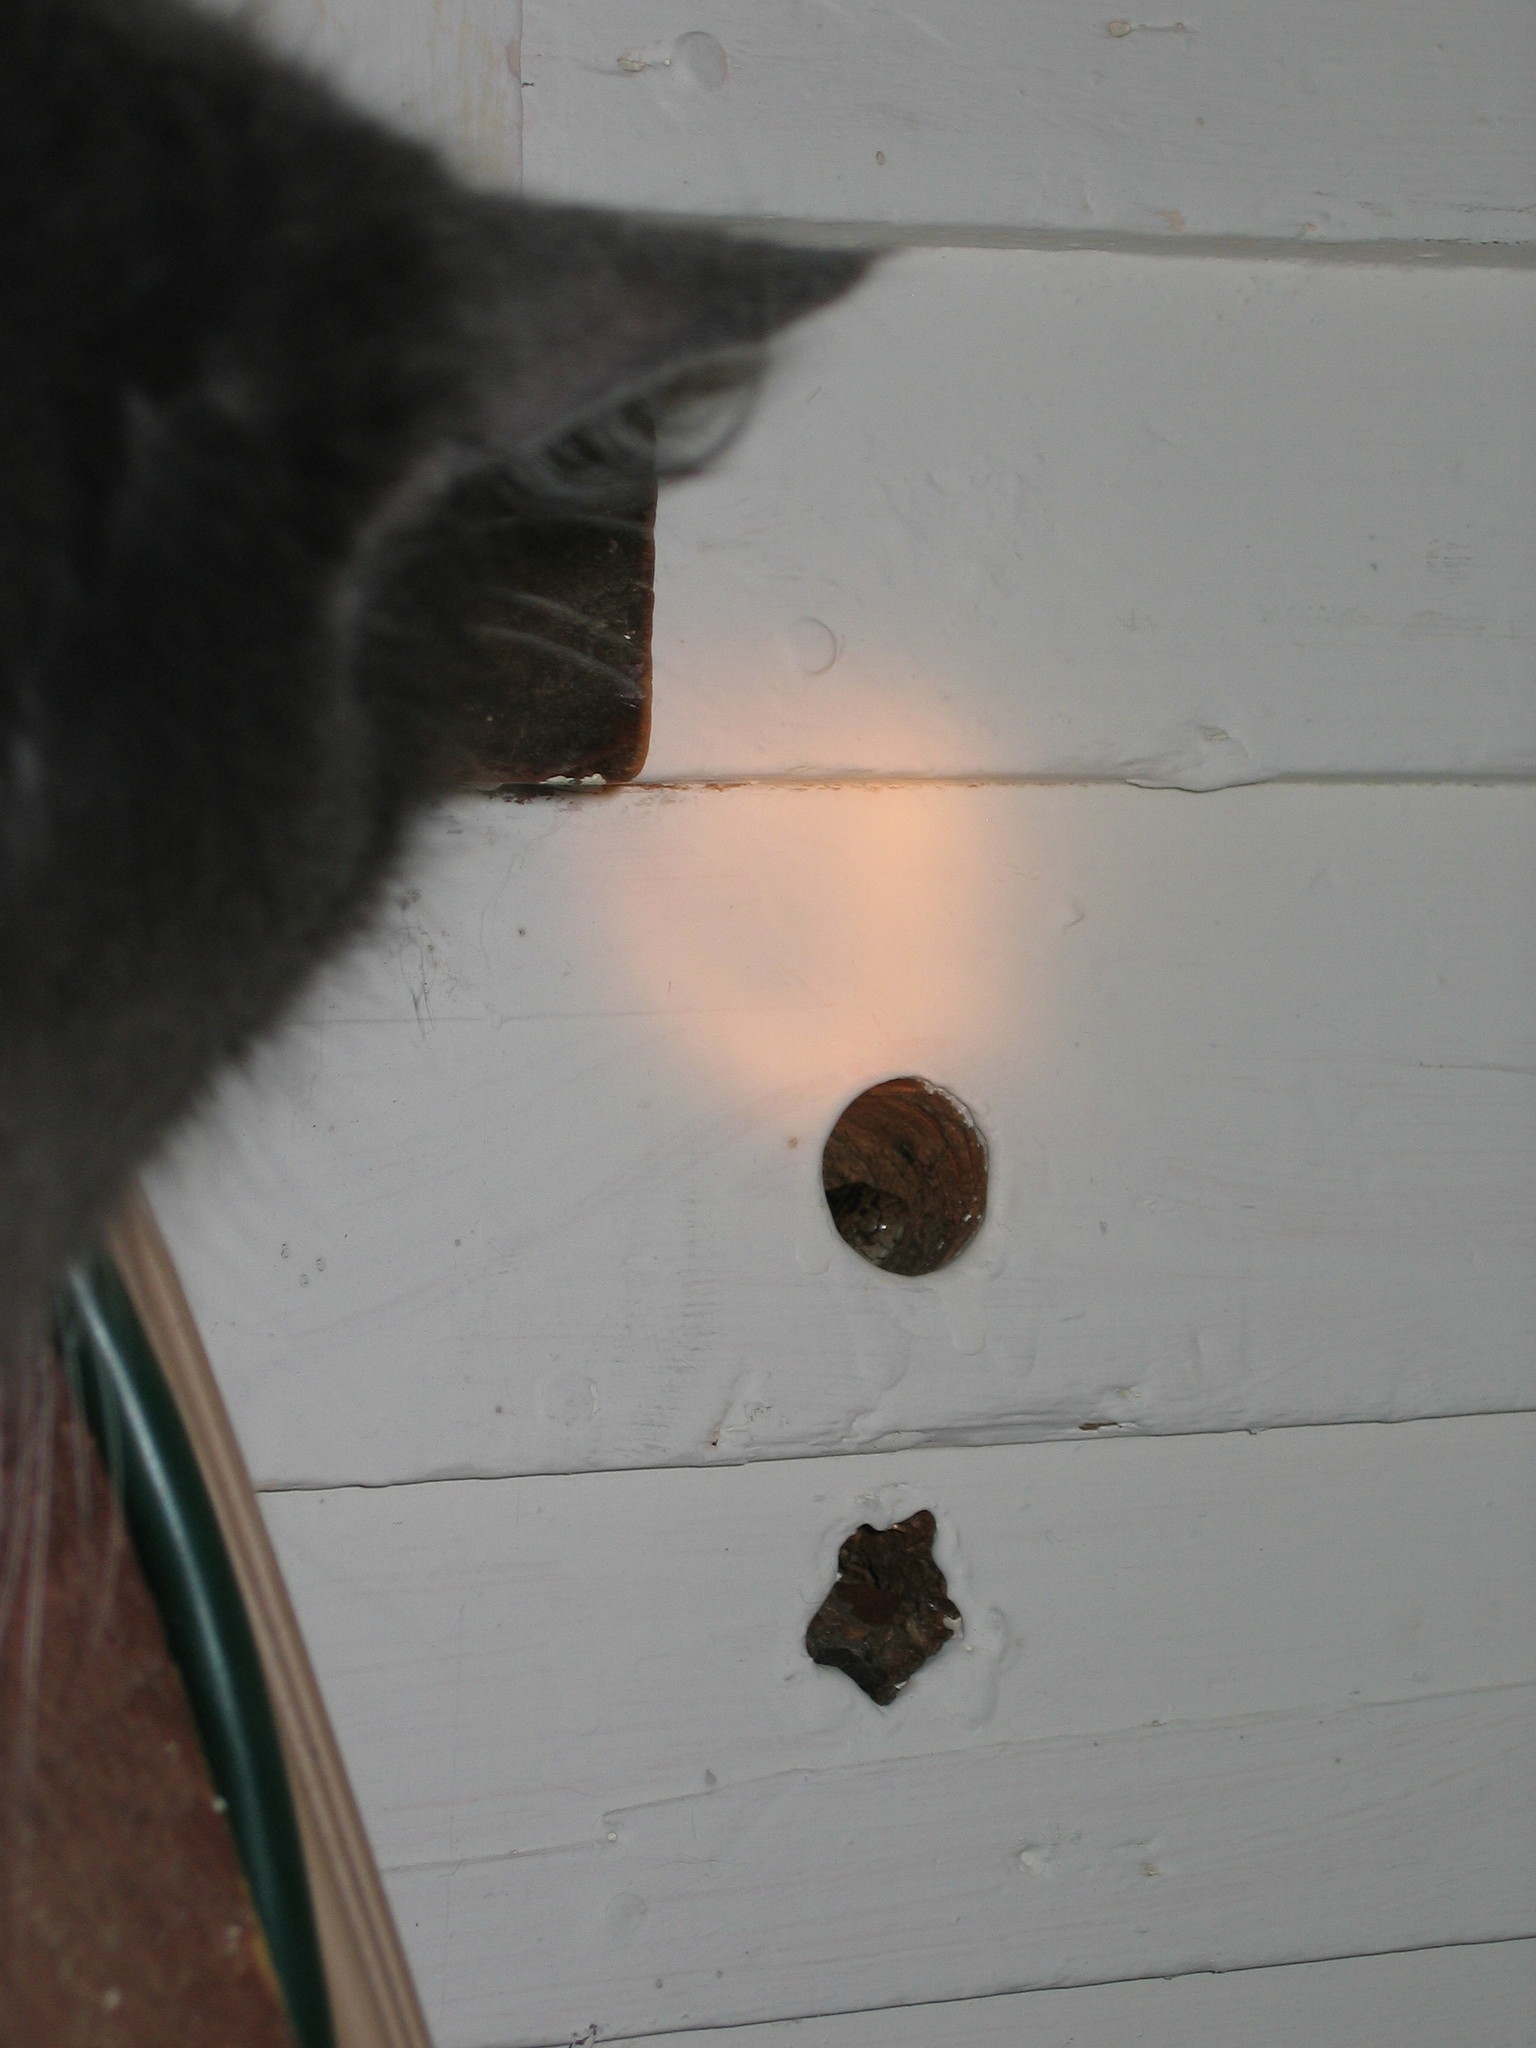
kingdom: Animalia
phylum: Chordata
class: Squamata
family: Colubridae
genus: Lampropeltis
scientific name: Lampropeltis triangulum
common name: Eastern milksnake
